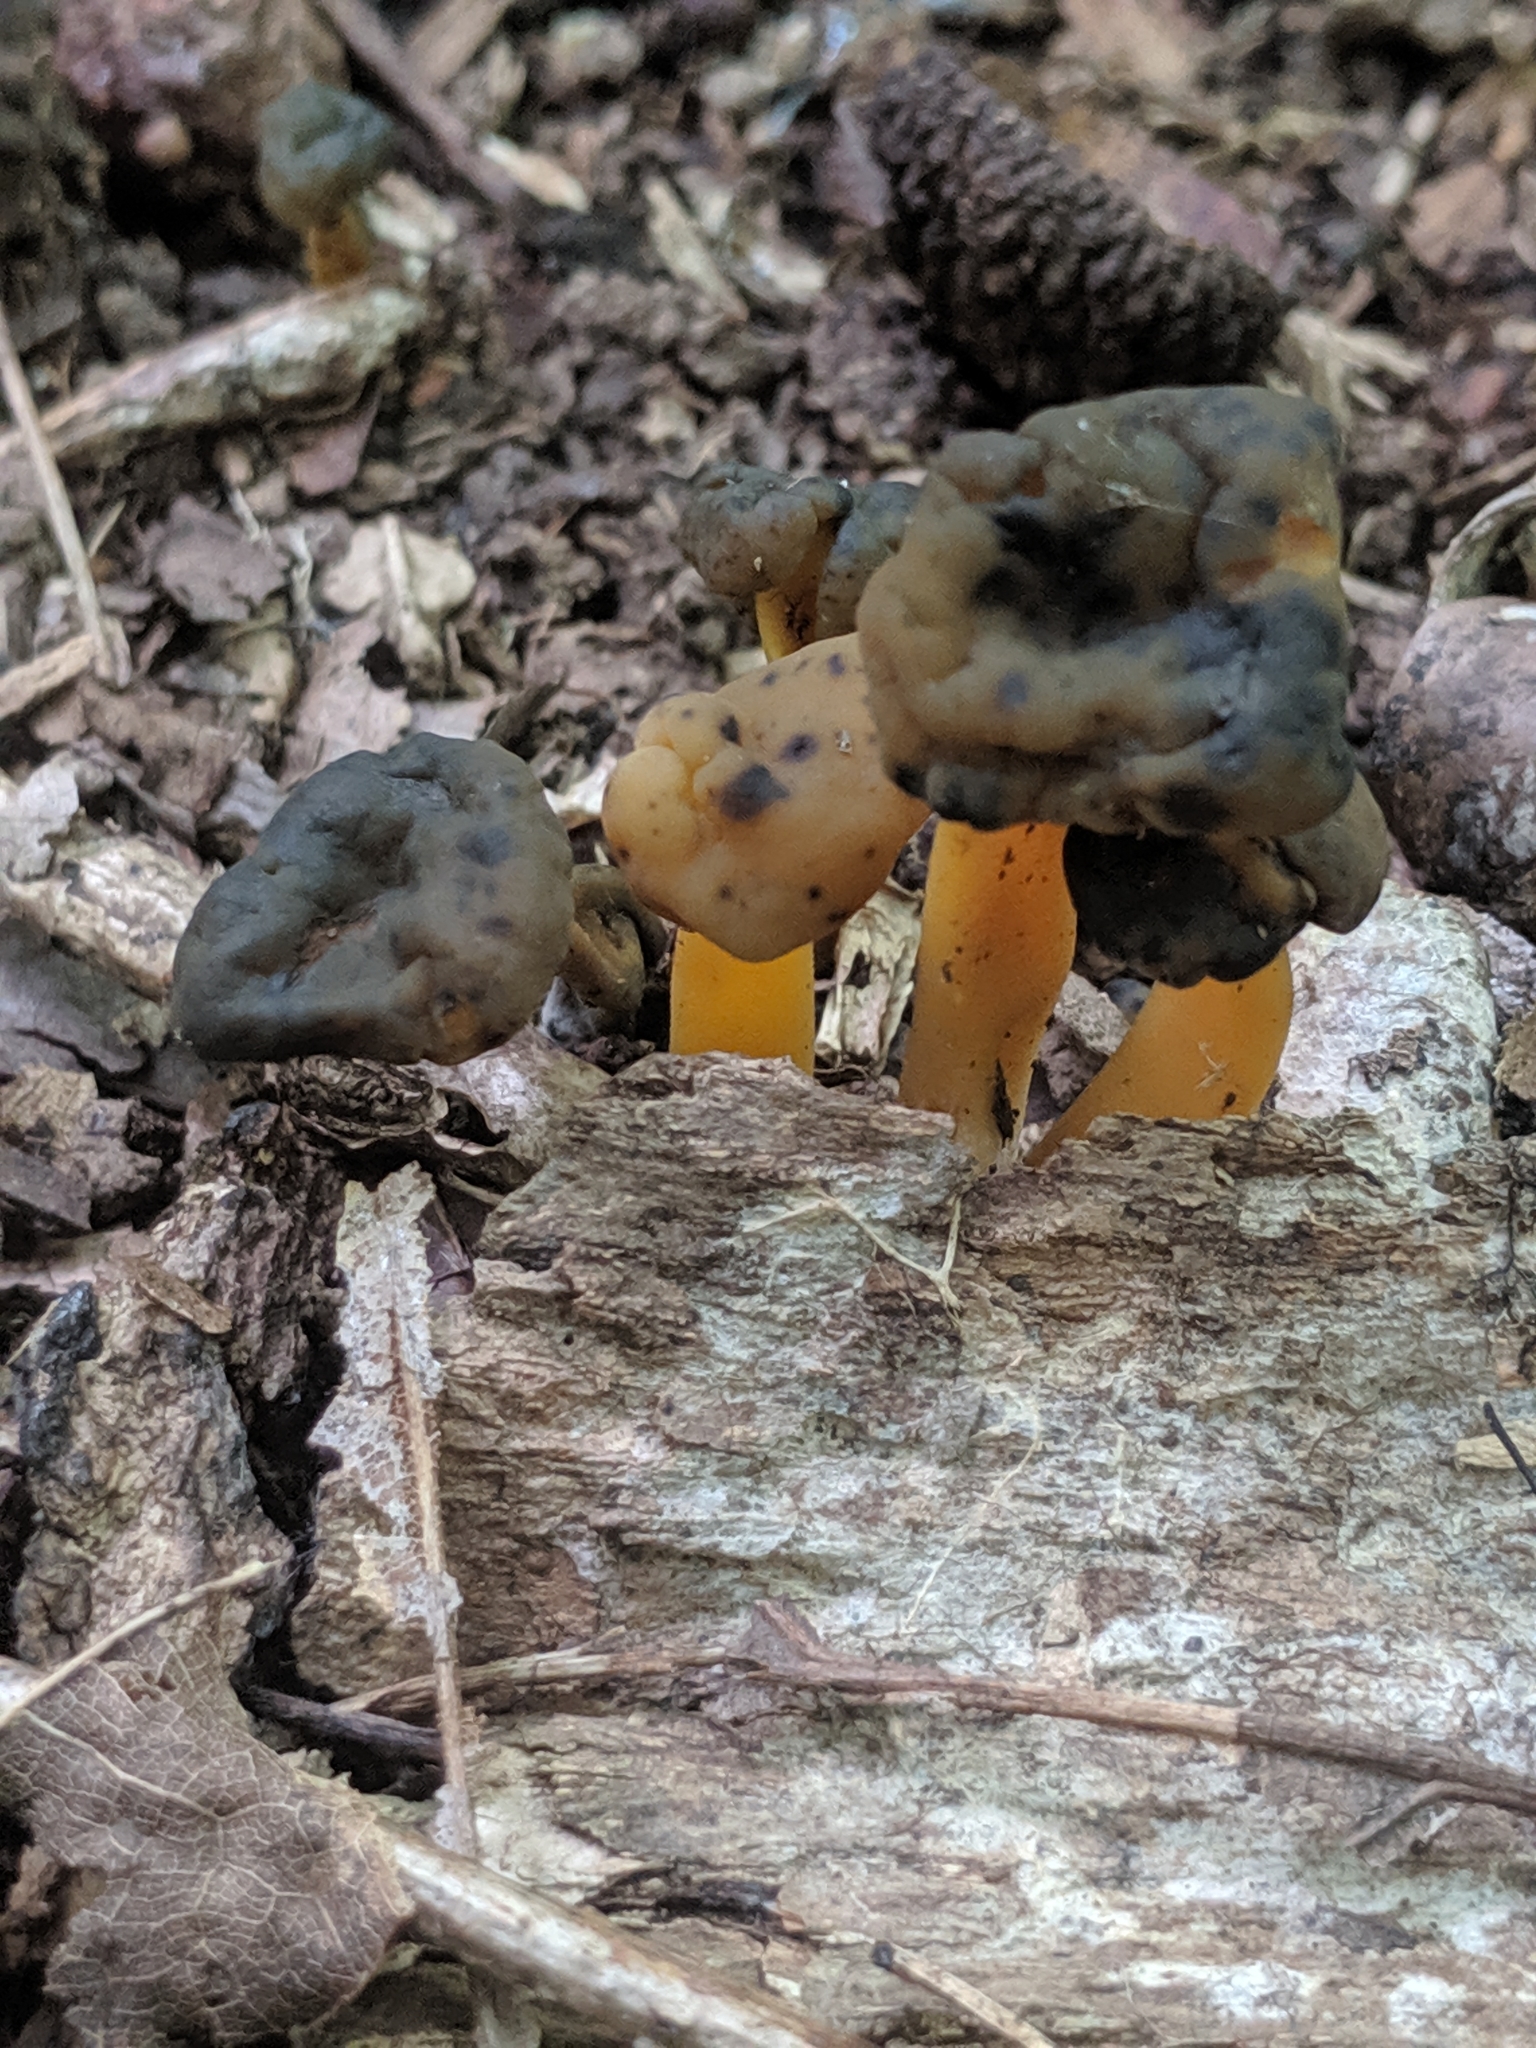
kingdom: Fungi
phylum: Ascomycota
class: Leotiomycetes
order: Leotiales
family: Leotiaceae
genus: Leotia
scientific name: Leotia lubrica
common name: Jellybaby
